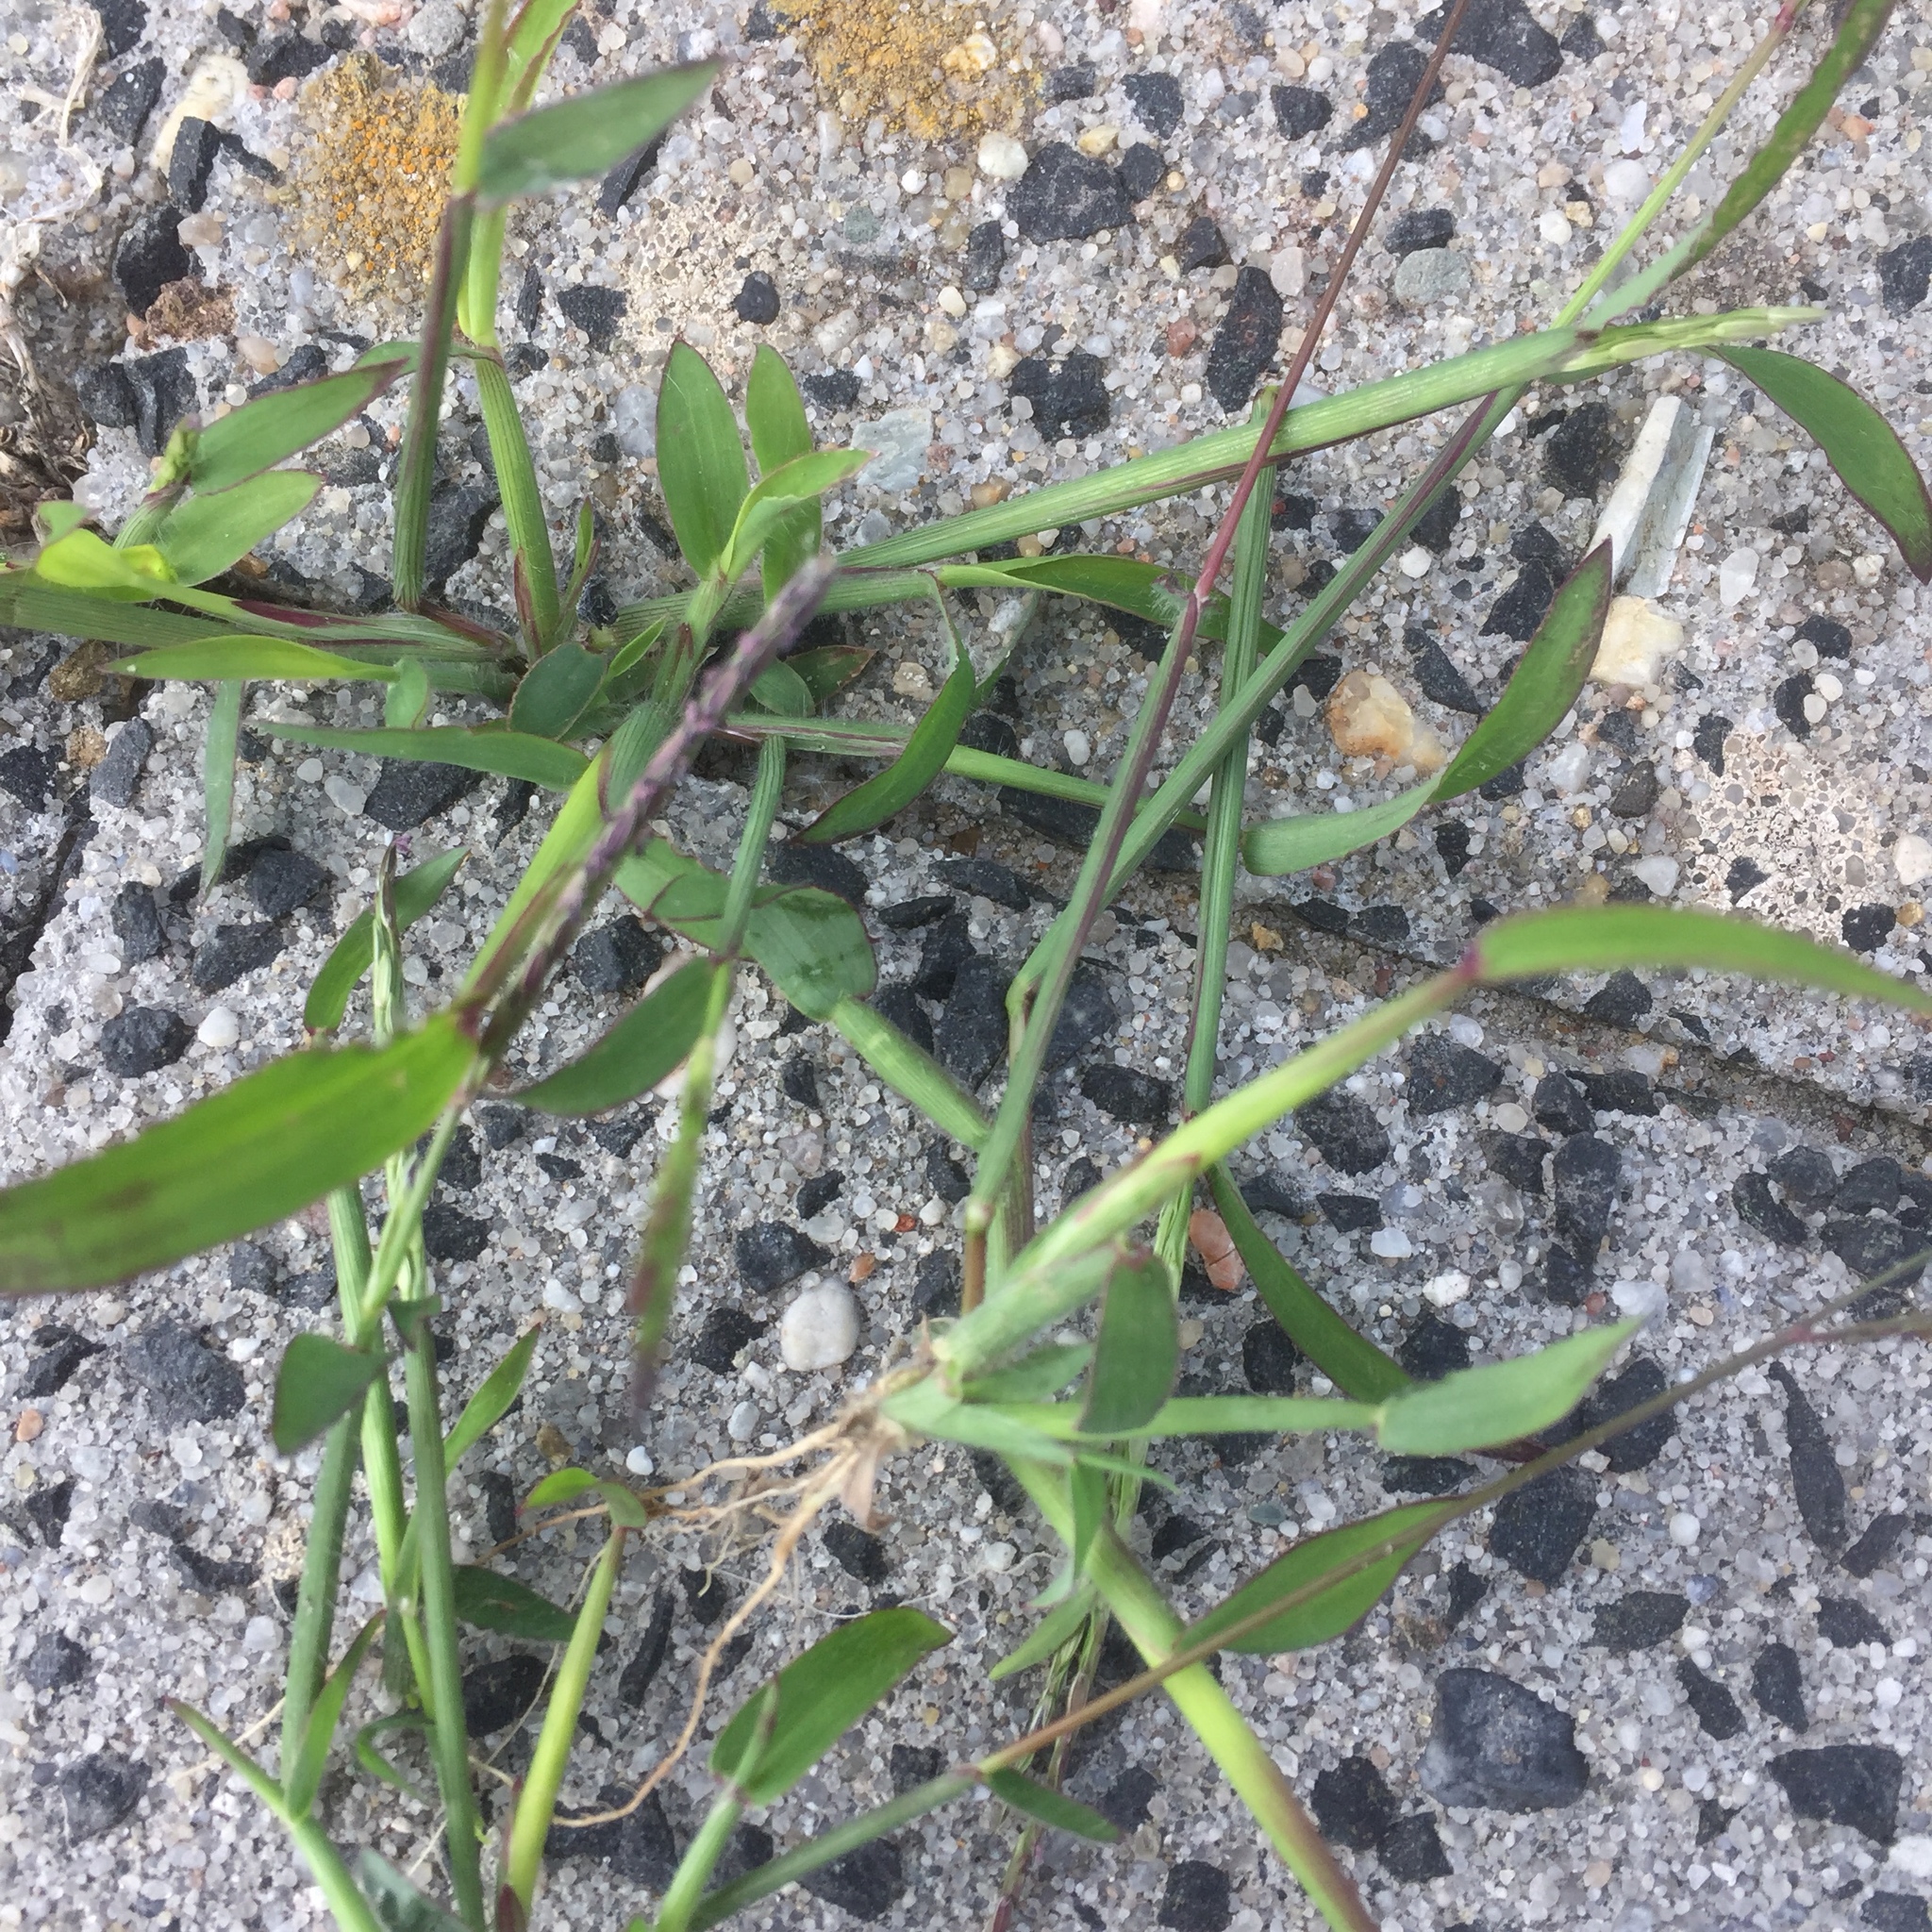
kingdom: Plantae
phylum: Tracheophyta
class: Liliopsida
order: Poales
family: Poaceae
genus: Digitaria
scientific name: Digitaria sanguinalis
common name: Hairy crabgrass
